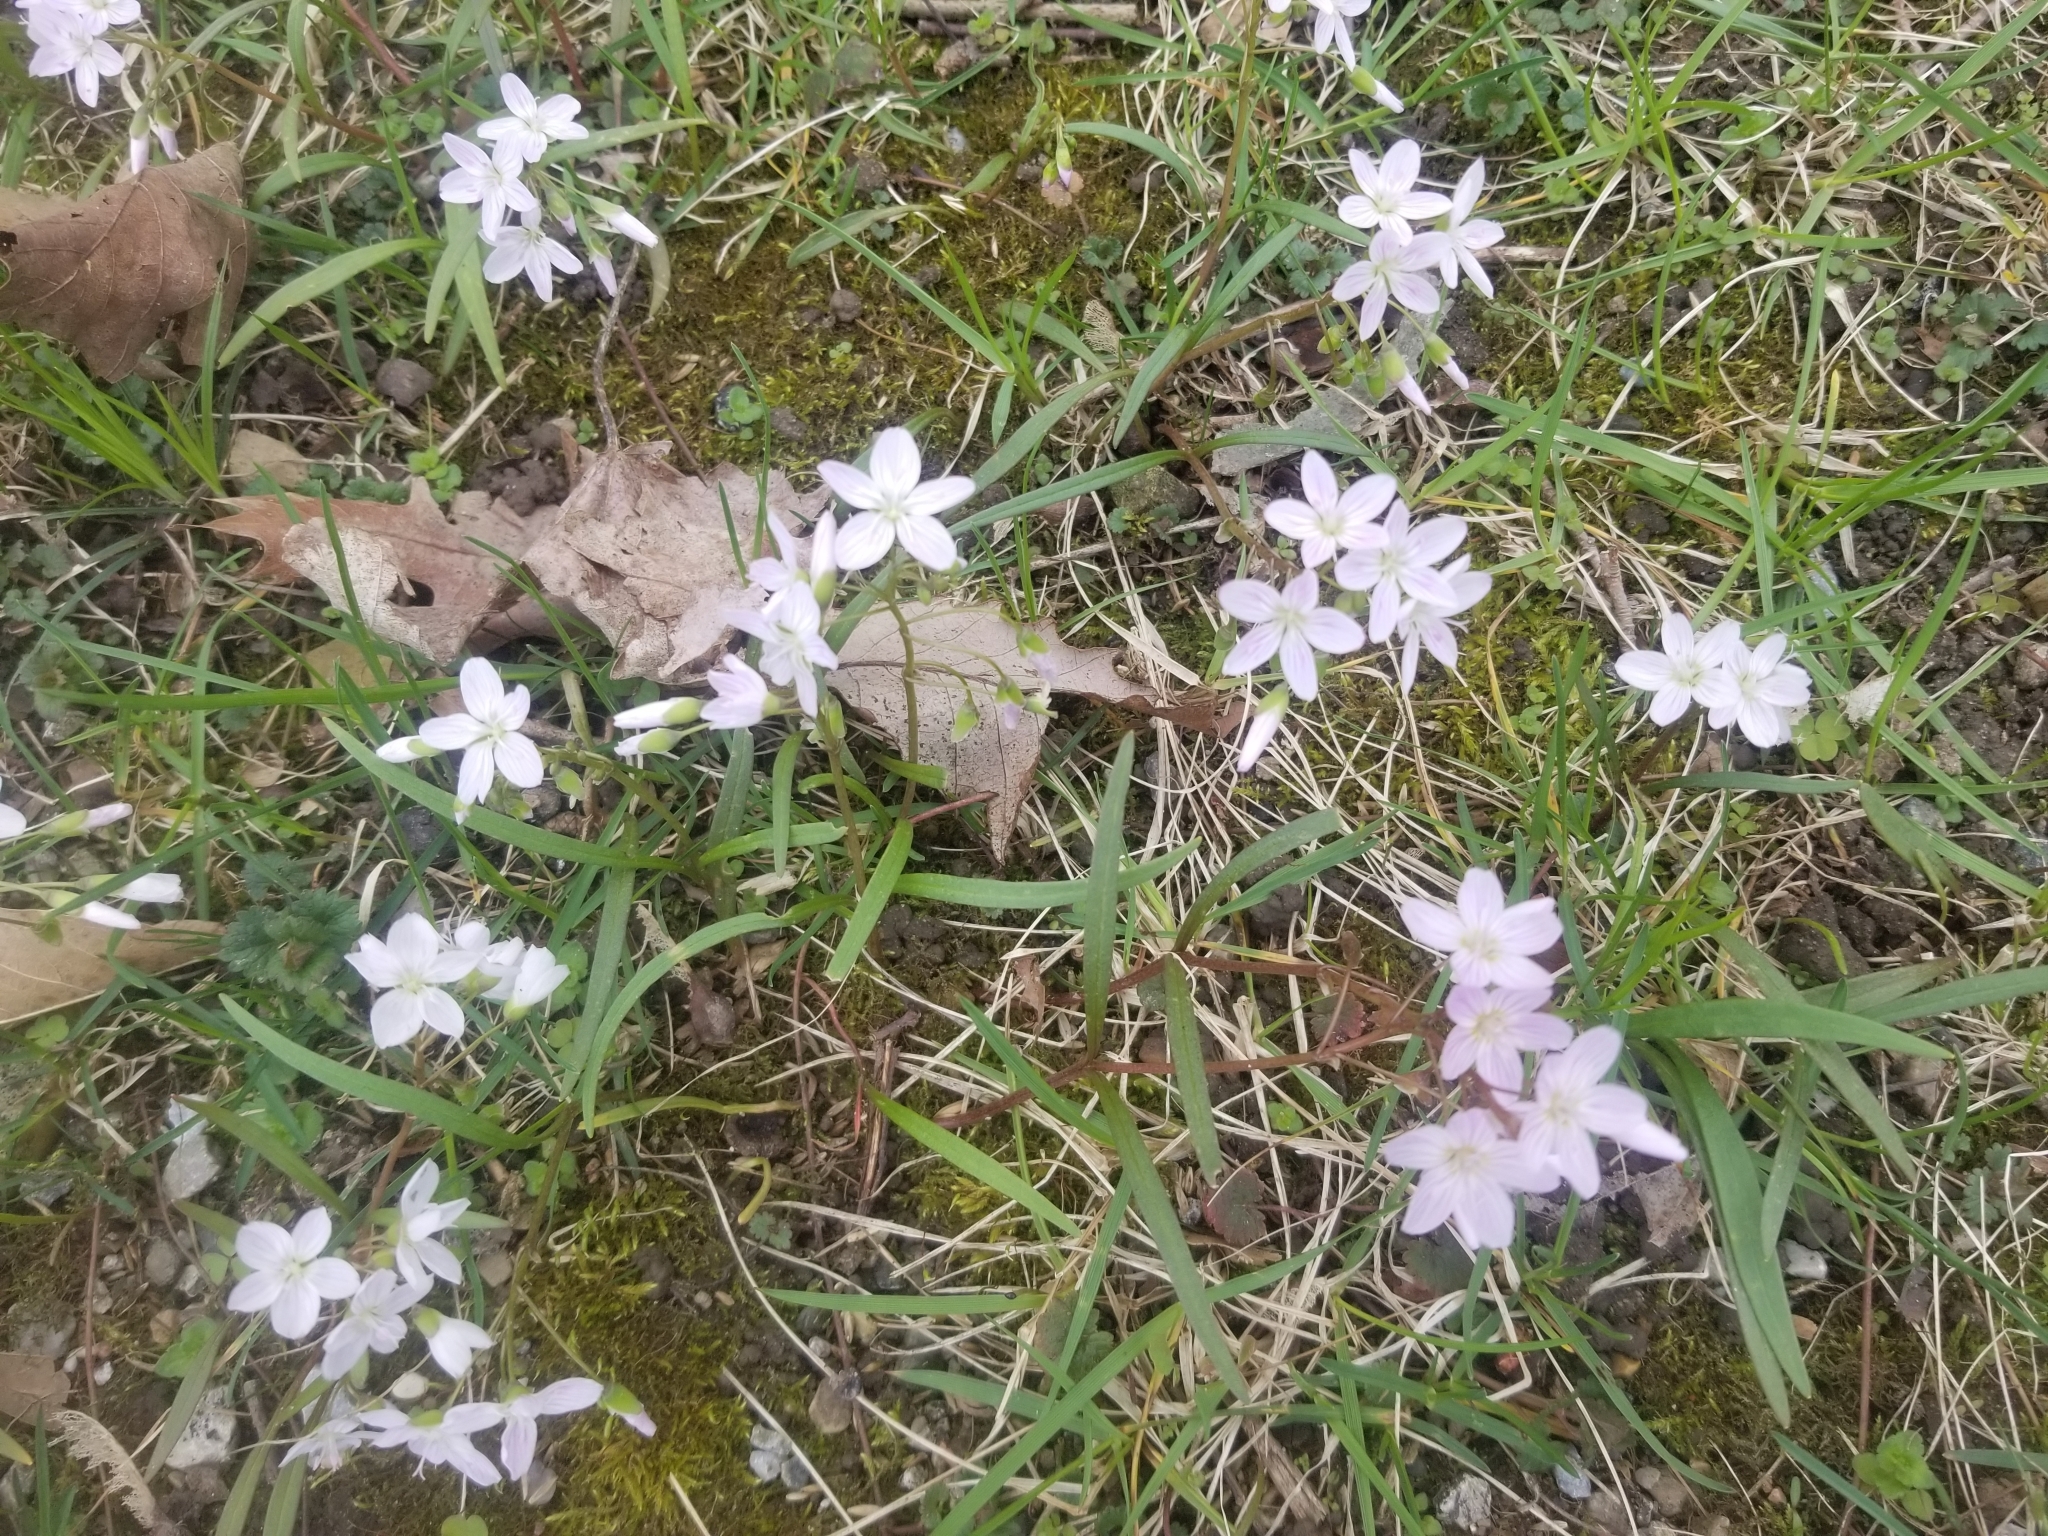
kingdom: Plantae
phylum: Tracheophyta
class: Magnoliopsida
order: Caryophyllales
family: Montiaceae
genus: Claytonia
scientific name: Claytonia virginica
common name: Virginia springbeauty
